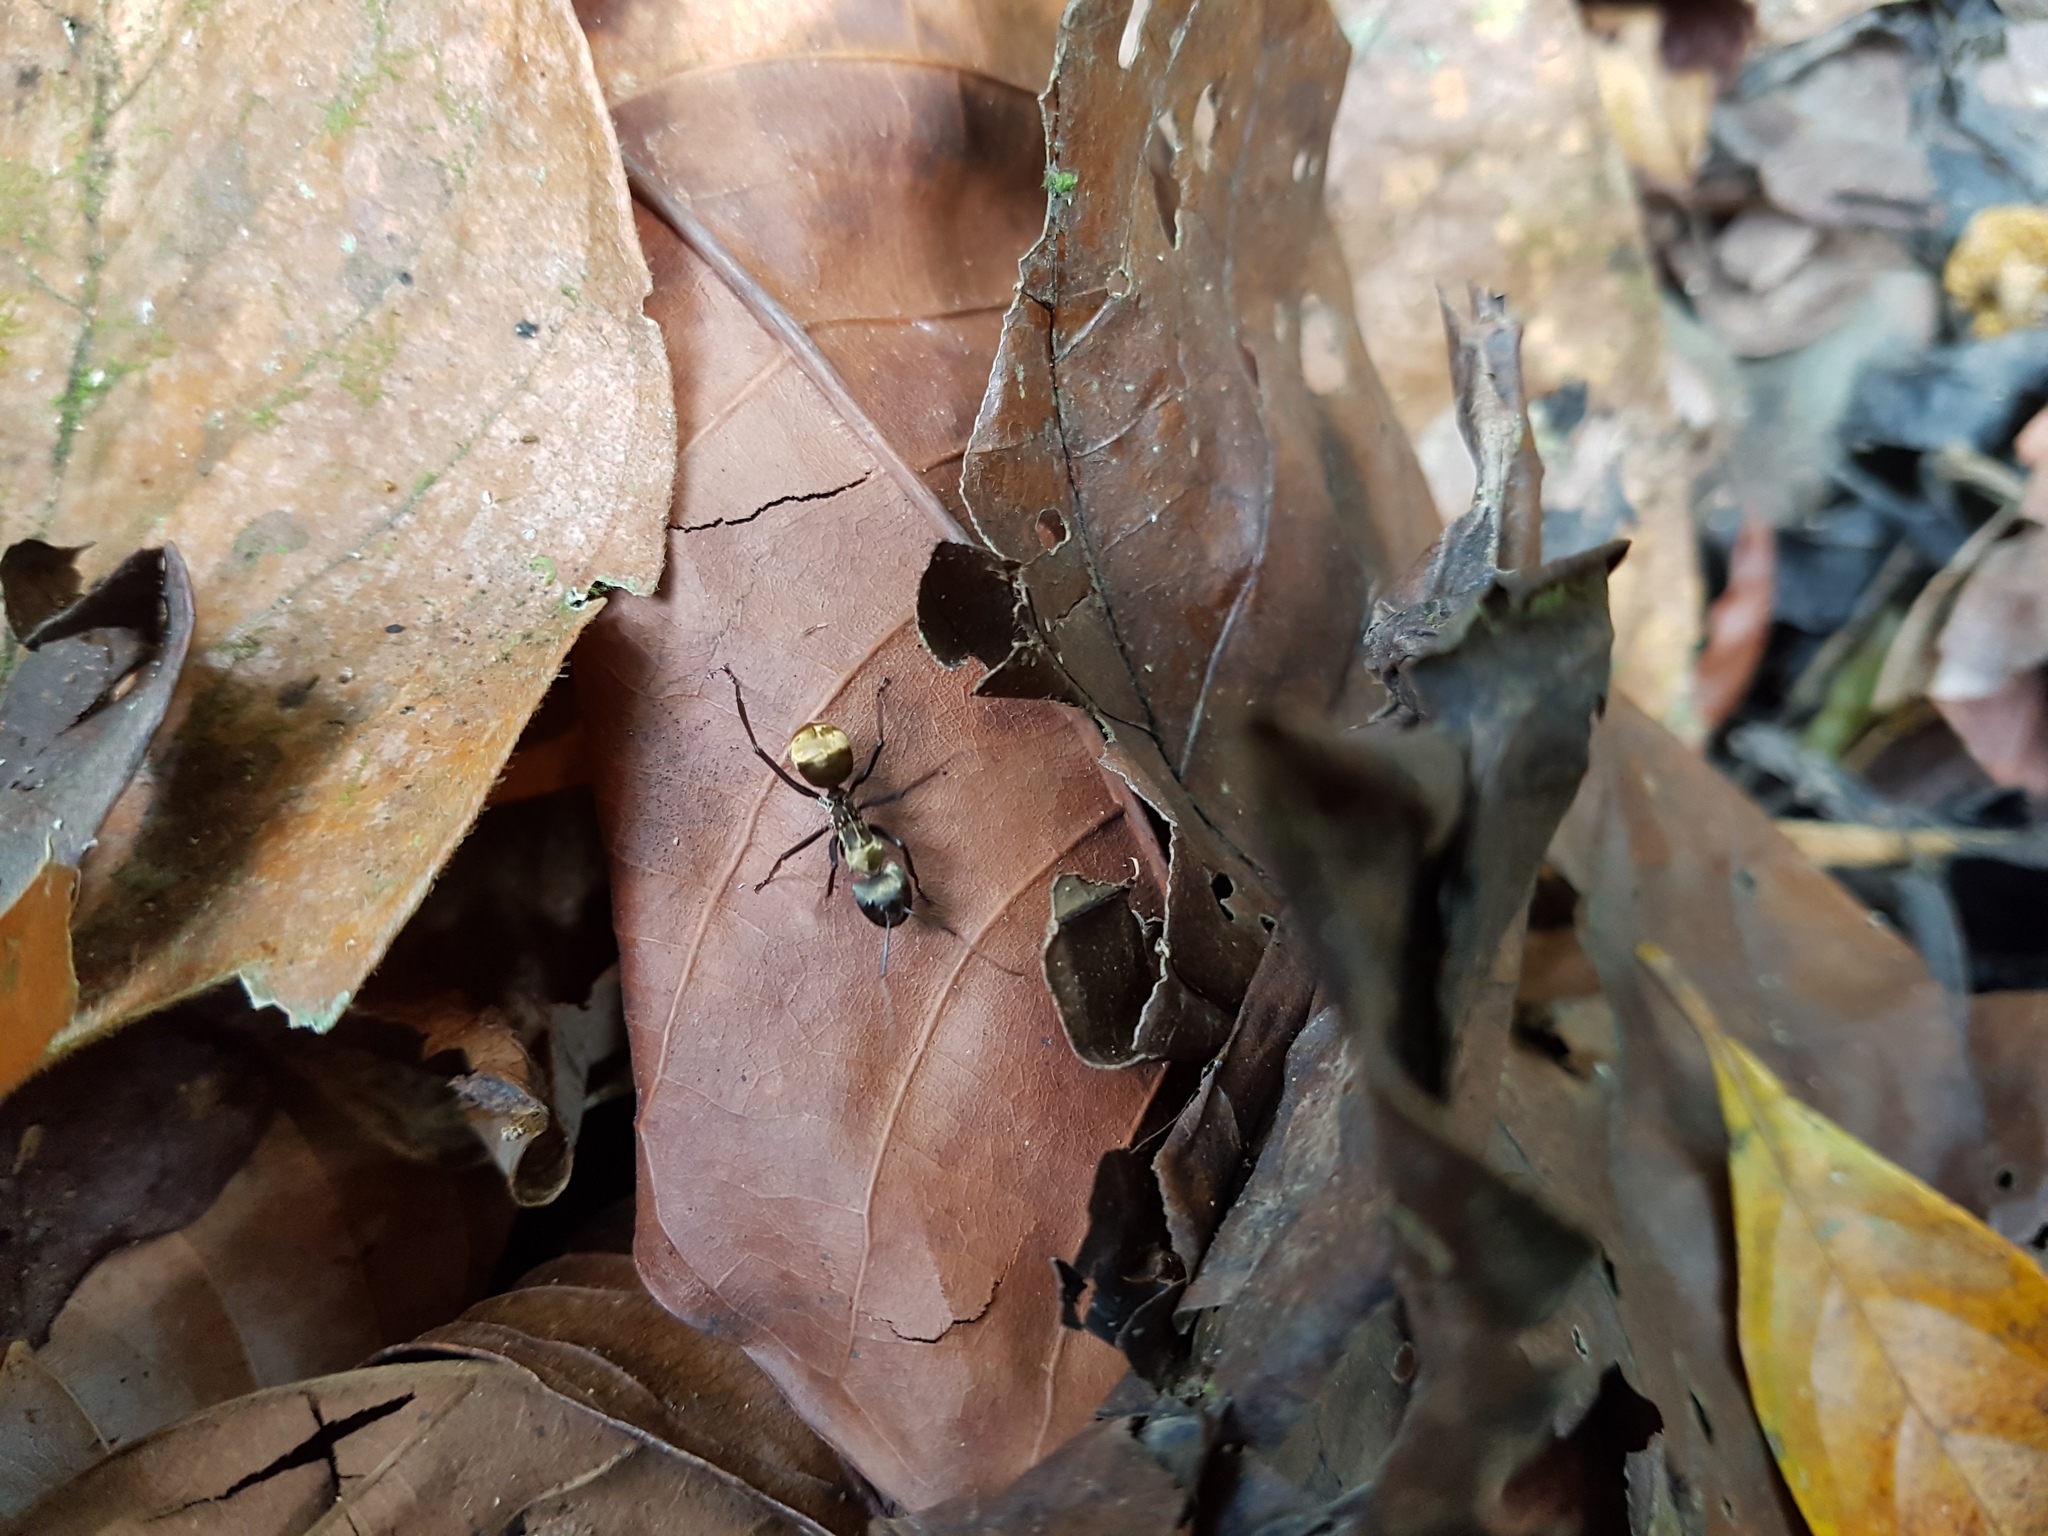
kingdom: Animalia
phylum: Arthropoda
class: Insecta
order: Hymenoptera
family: Formicidae
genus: Camponotus
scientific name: Camponotus sericeiventris
